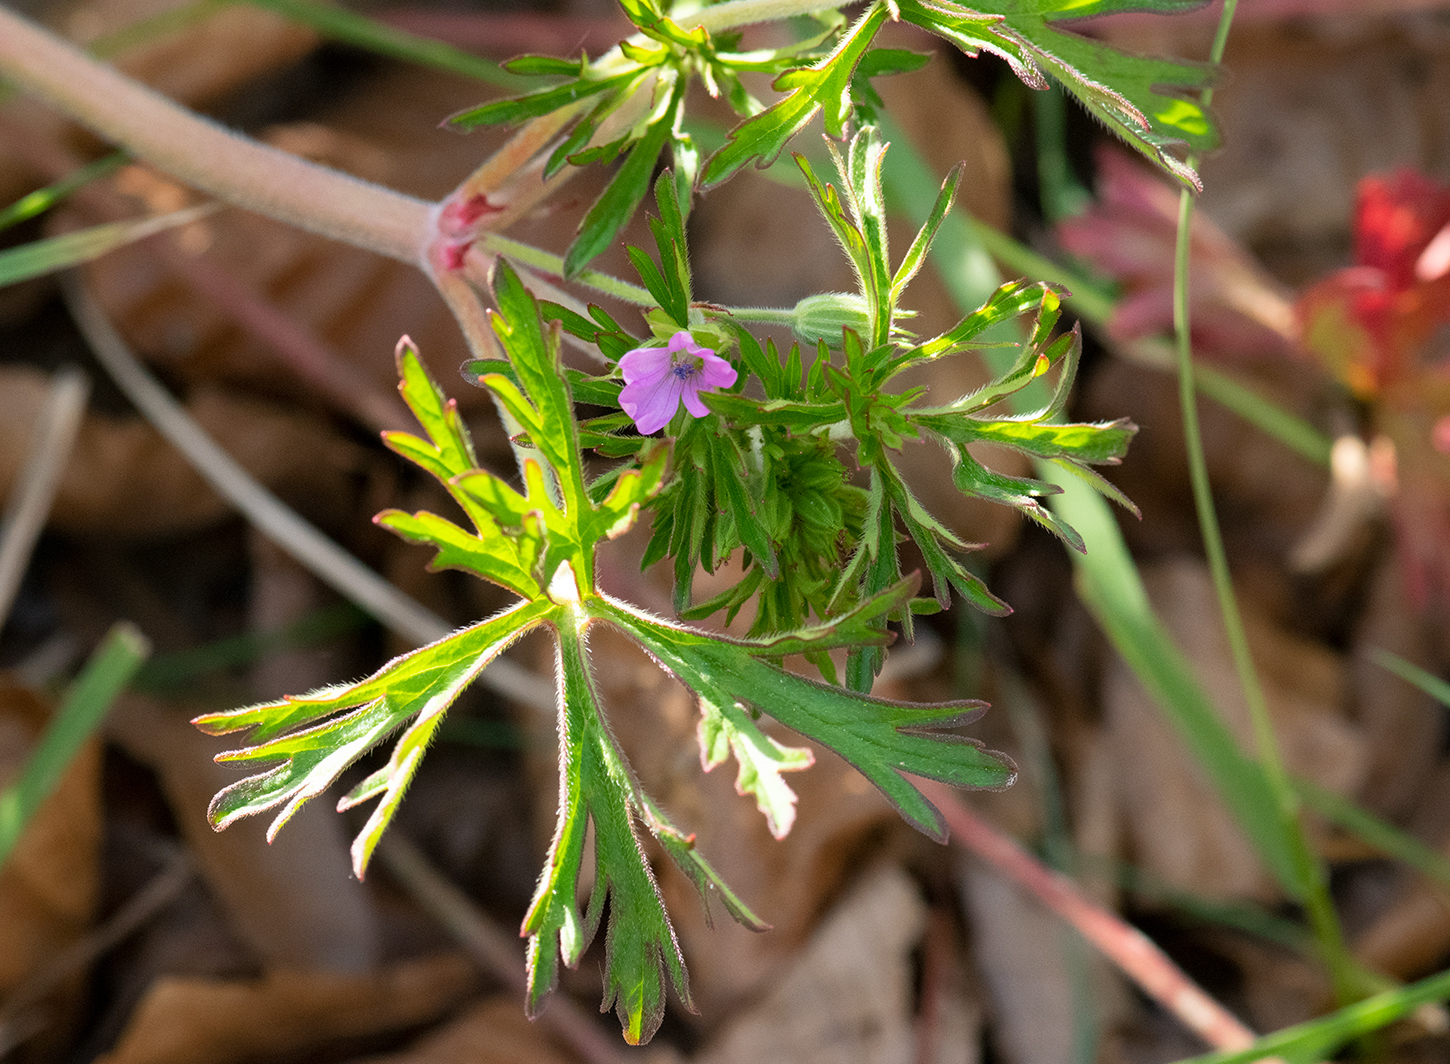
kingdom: Plantae
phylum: Tracheophyta
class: Magnoliopsida
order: Geraniales
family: Geraniaceae
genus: Geranium
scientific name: Geranium dissectum
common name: Cut-leaved crane's-bill
